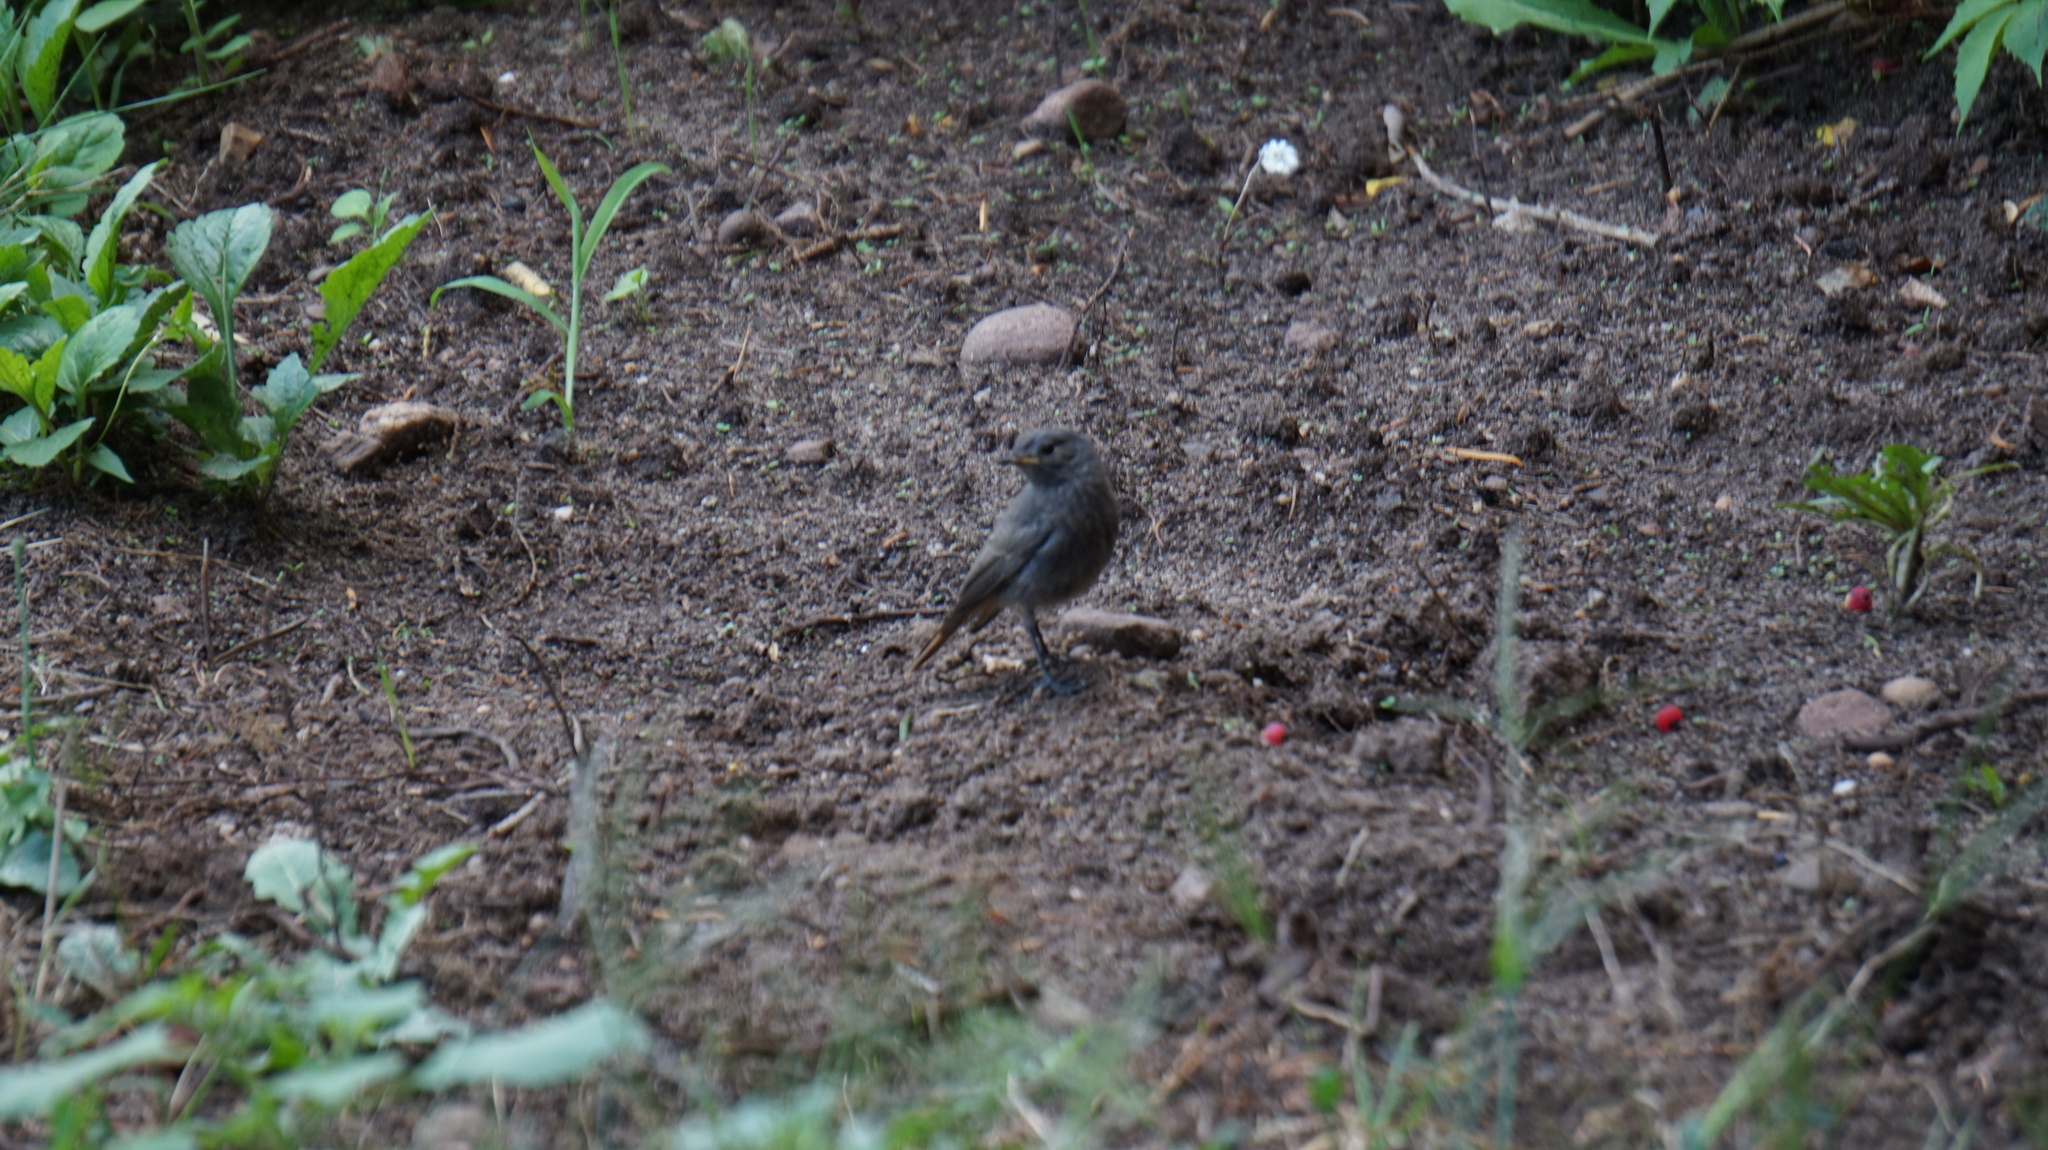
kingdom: Animalia
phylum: Chordata
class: Aves
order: Passeriformes
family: Muscicapidae
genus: Phoenicurus
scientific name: Phoenicurus ochruros
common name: Black redstart
